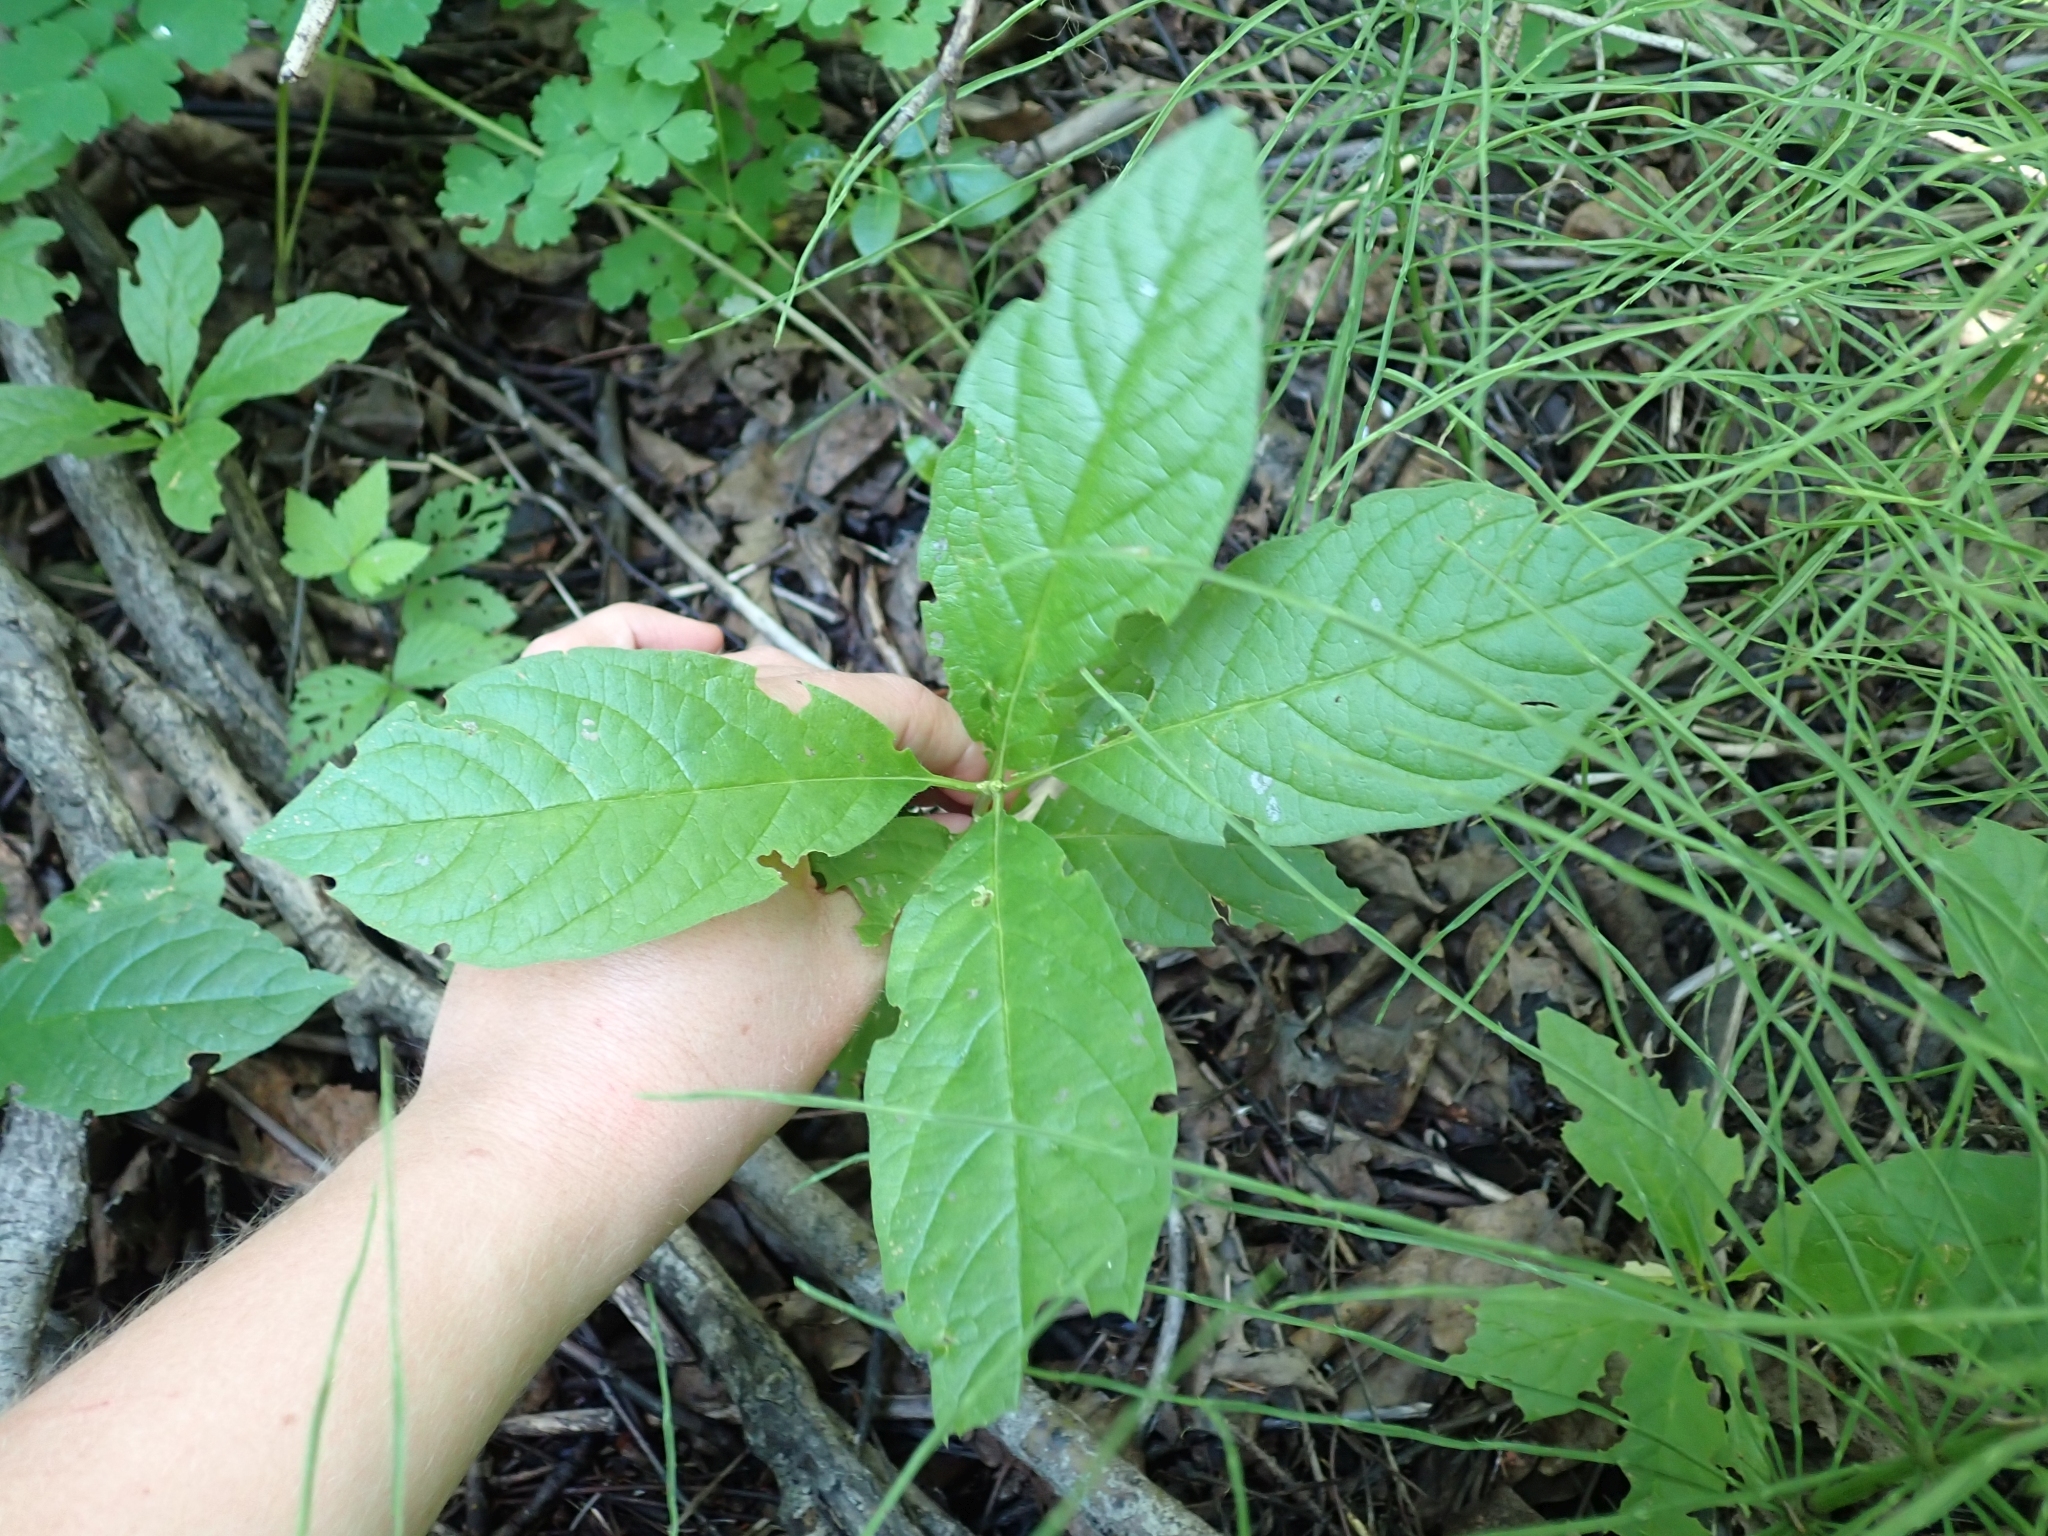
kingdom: Plantae
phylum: Tracheophyta
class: Magnoliopsida
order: Dipsacales
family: Caprifoliaceae
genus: Lonicera
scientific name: Lonicera involucrata
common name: Californian honeysuckle
